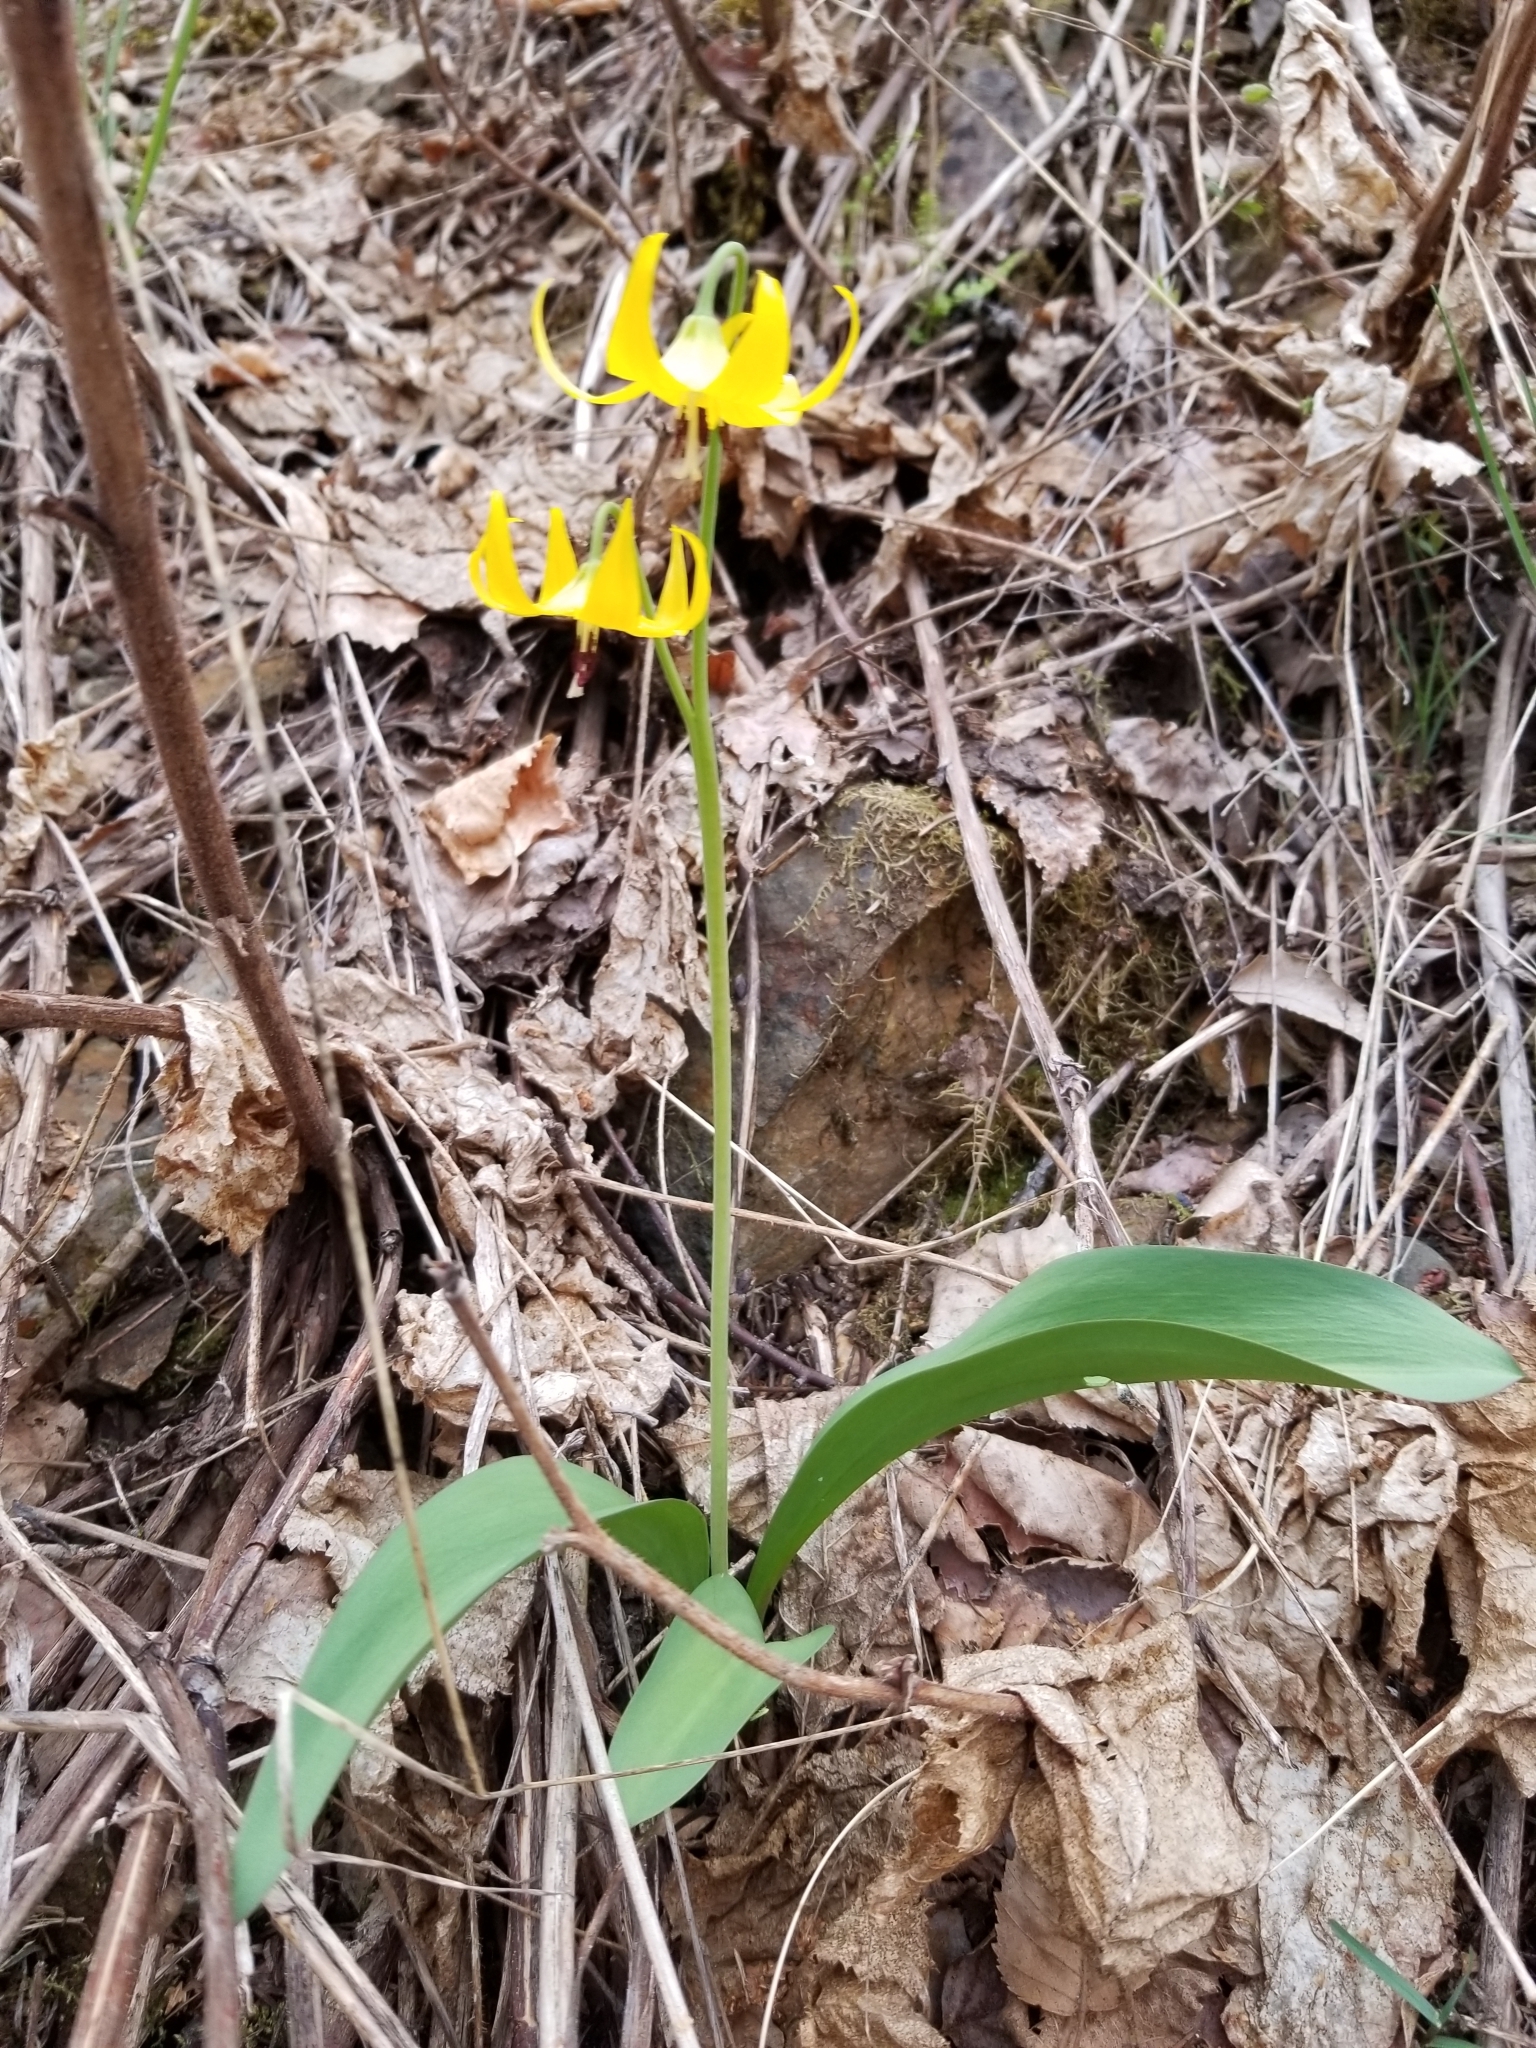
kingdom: Plantae
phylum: Tracheophyta
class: Liliopsida
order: Liliales
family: Liliaceae
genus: Erythronium
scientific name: Erythronium grandiflorum
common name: Avalanche-lily
